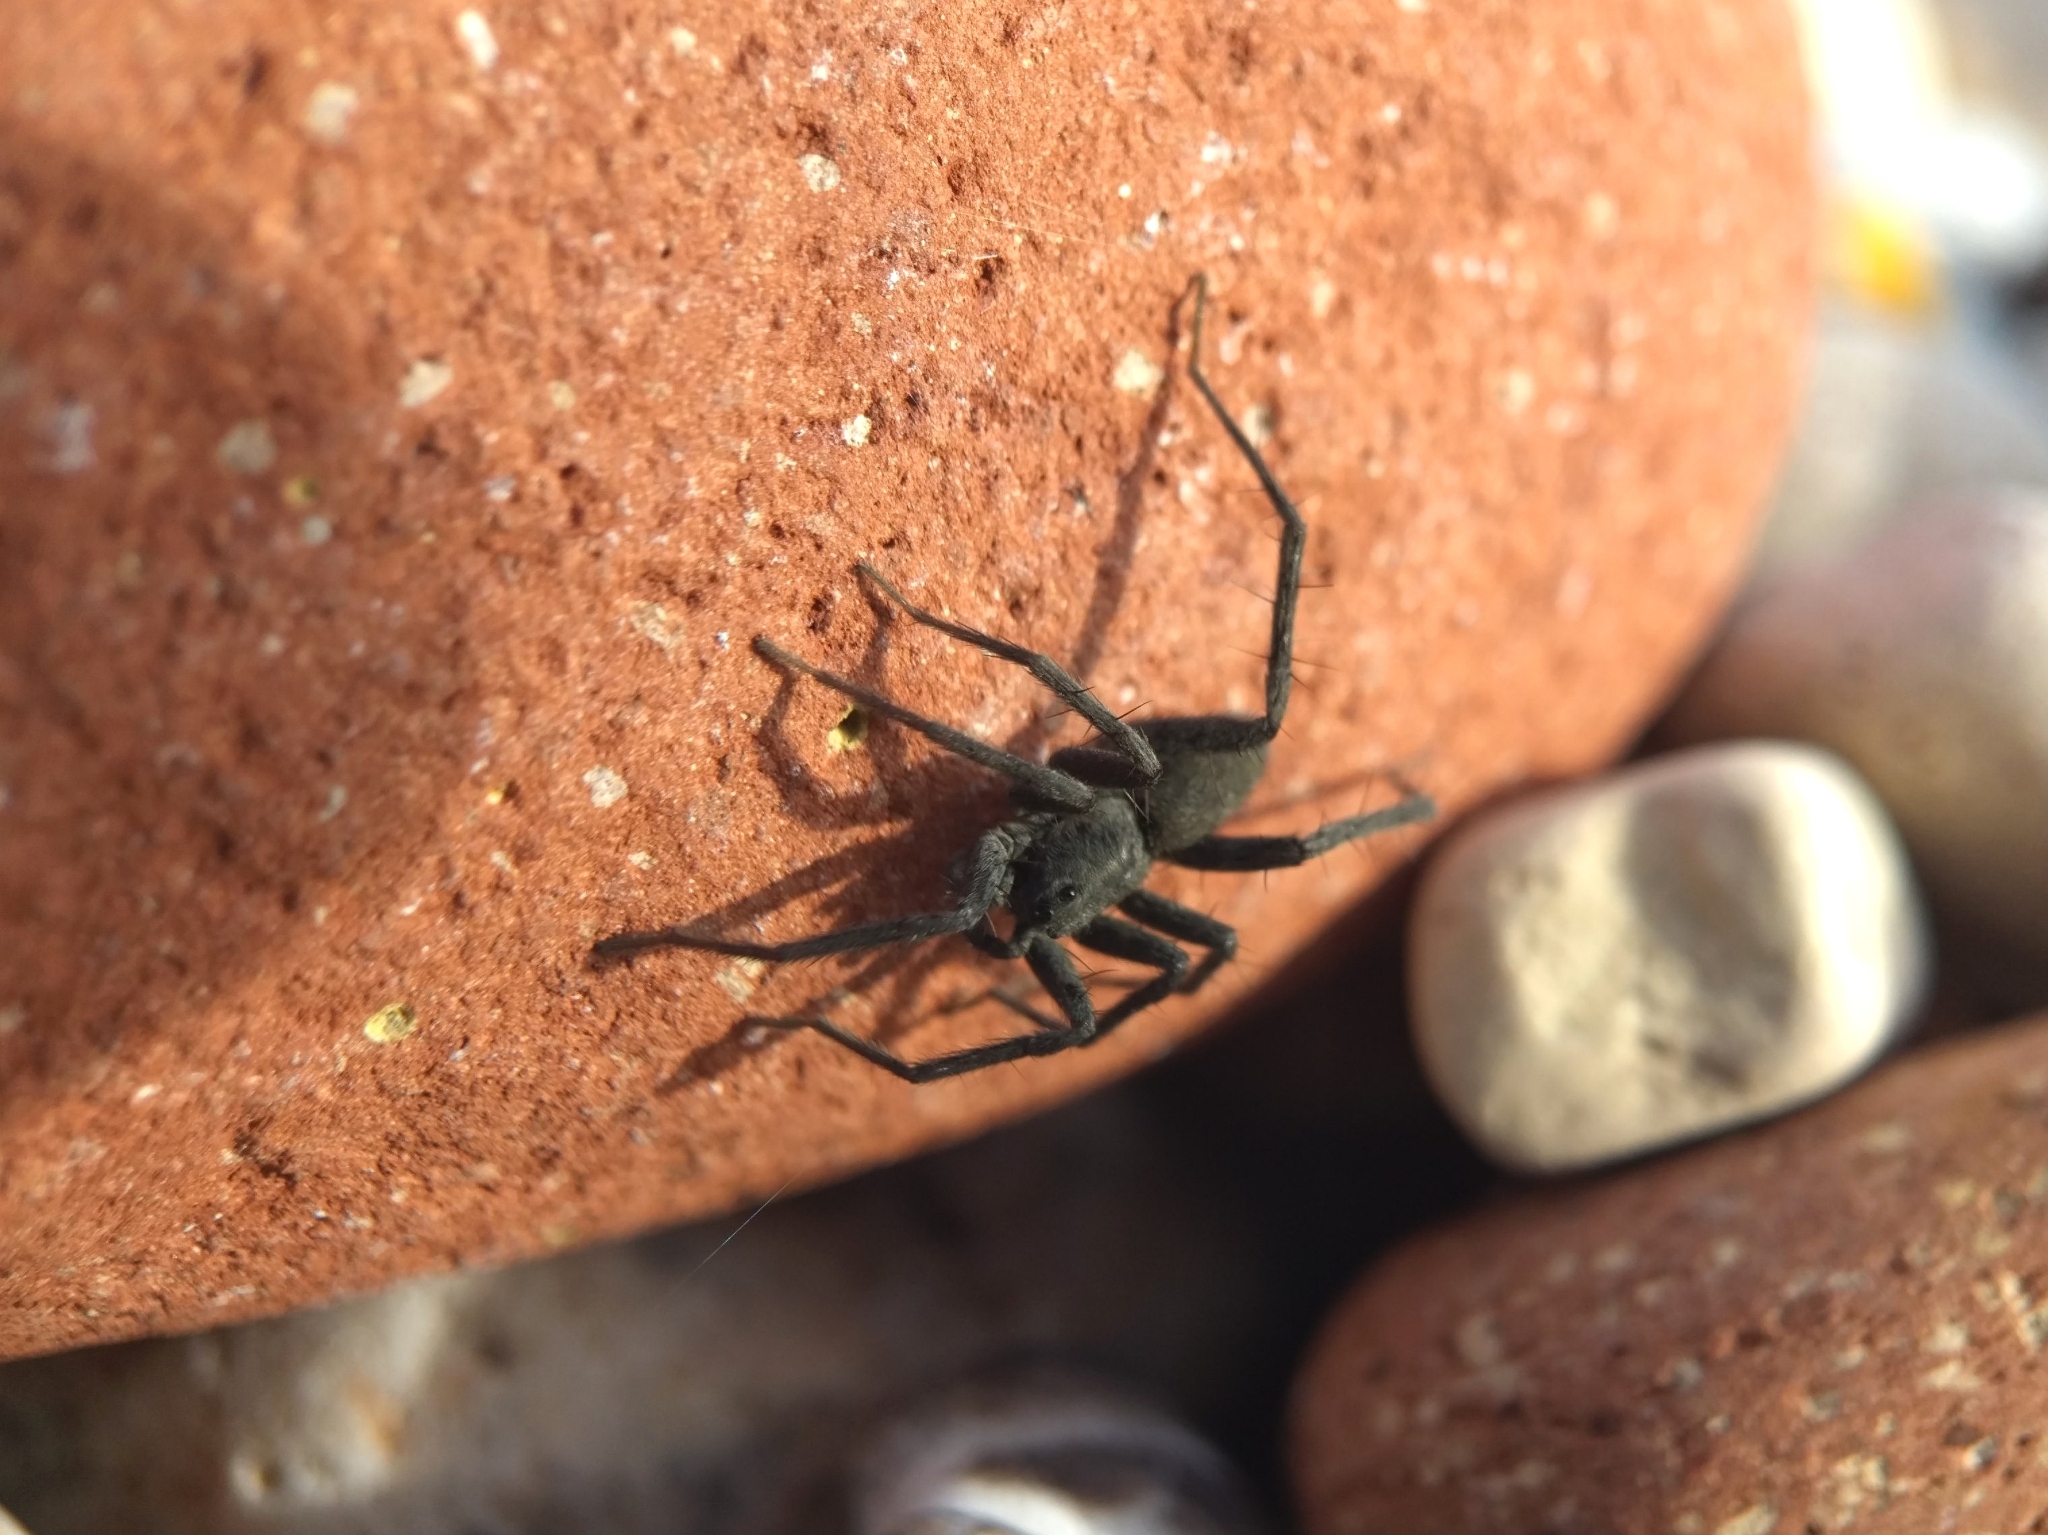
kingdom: Animalia
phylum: Arthropoda
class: Arachnida
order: Araneae
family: Lycosidae
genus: Pardosa
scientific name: Pardosa lapidicina
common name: Stone spider
